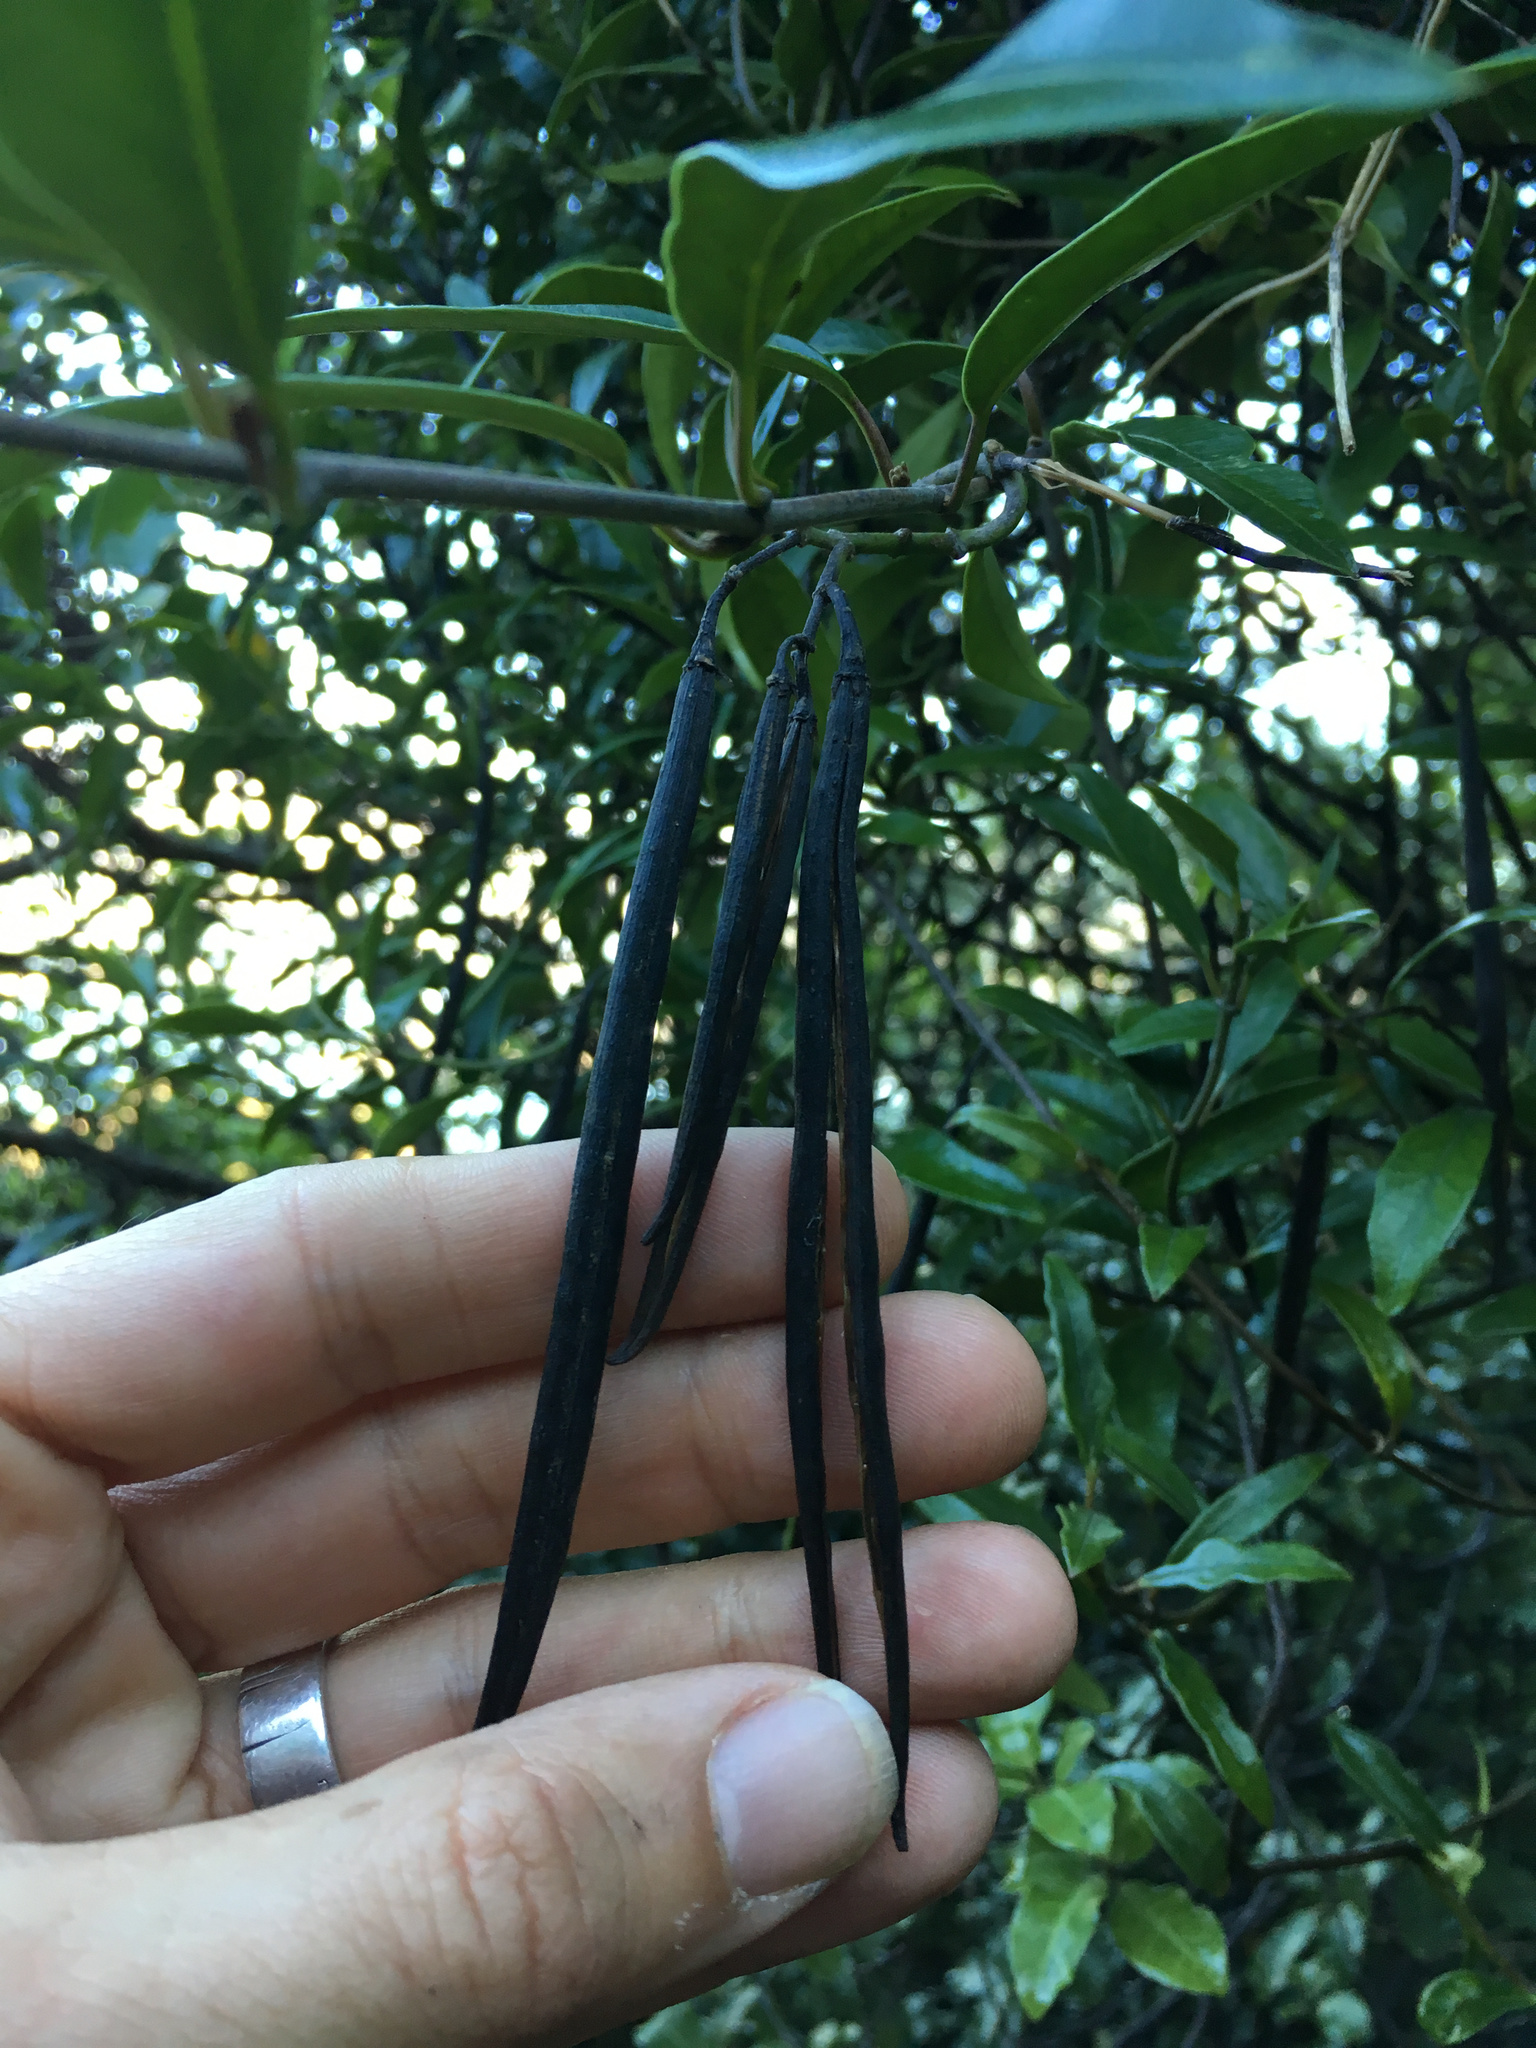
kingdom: Plantae
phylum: Tracheophyta
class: Magnoliopsida
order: Gentianales
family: Apocynaceae
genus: Parsonsia
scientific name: Parsonsia heterophylla
